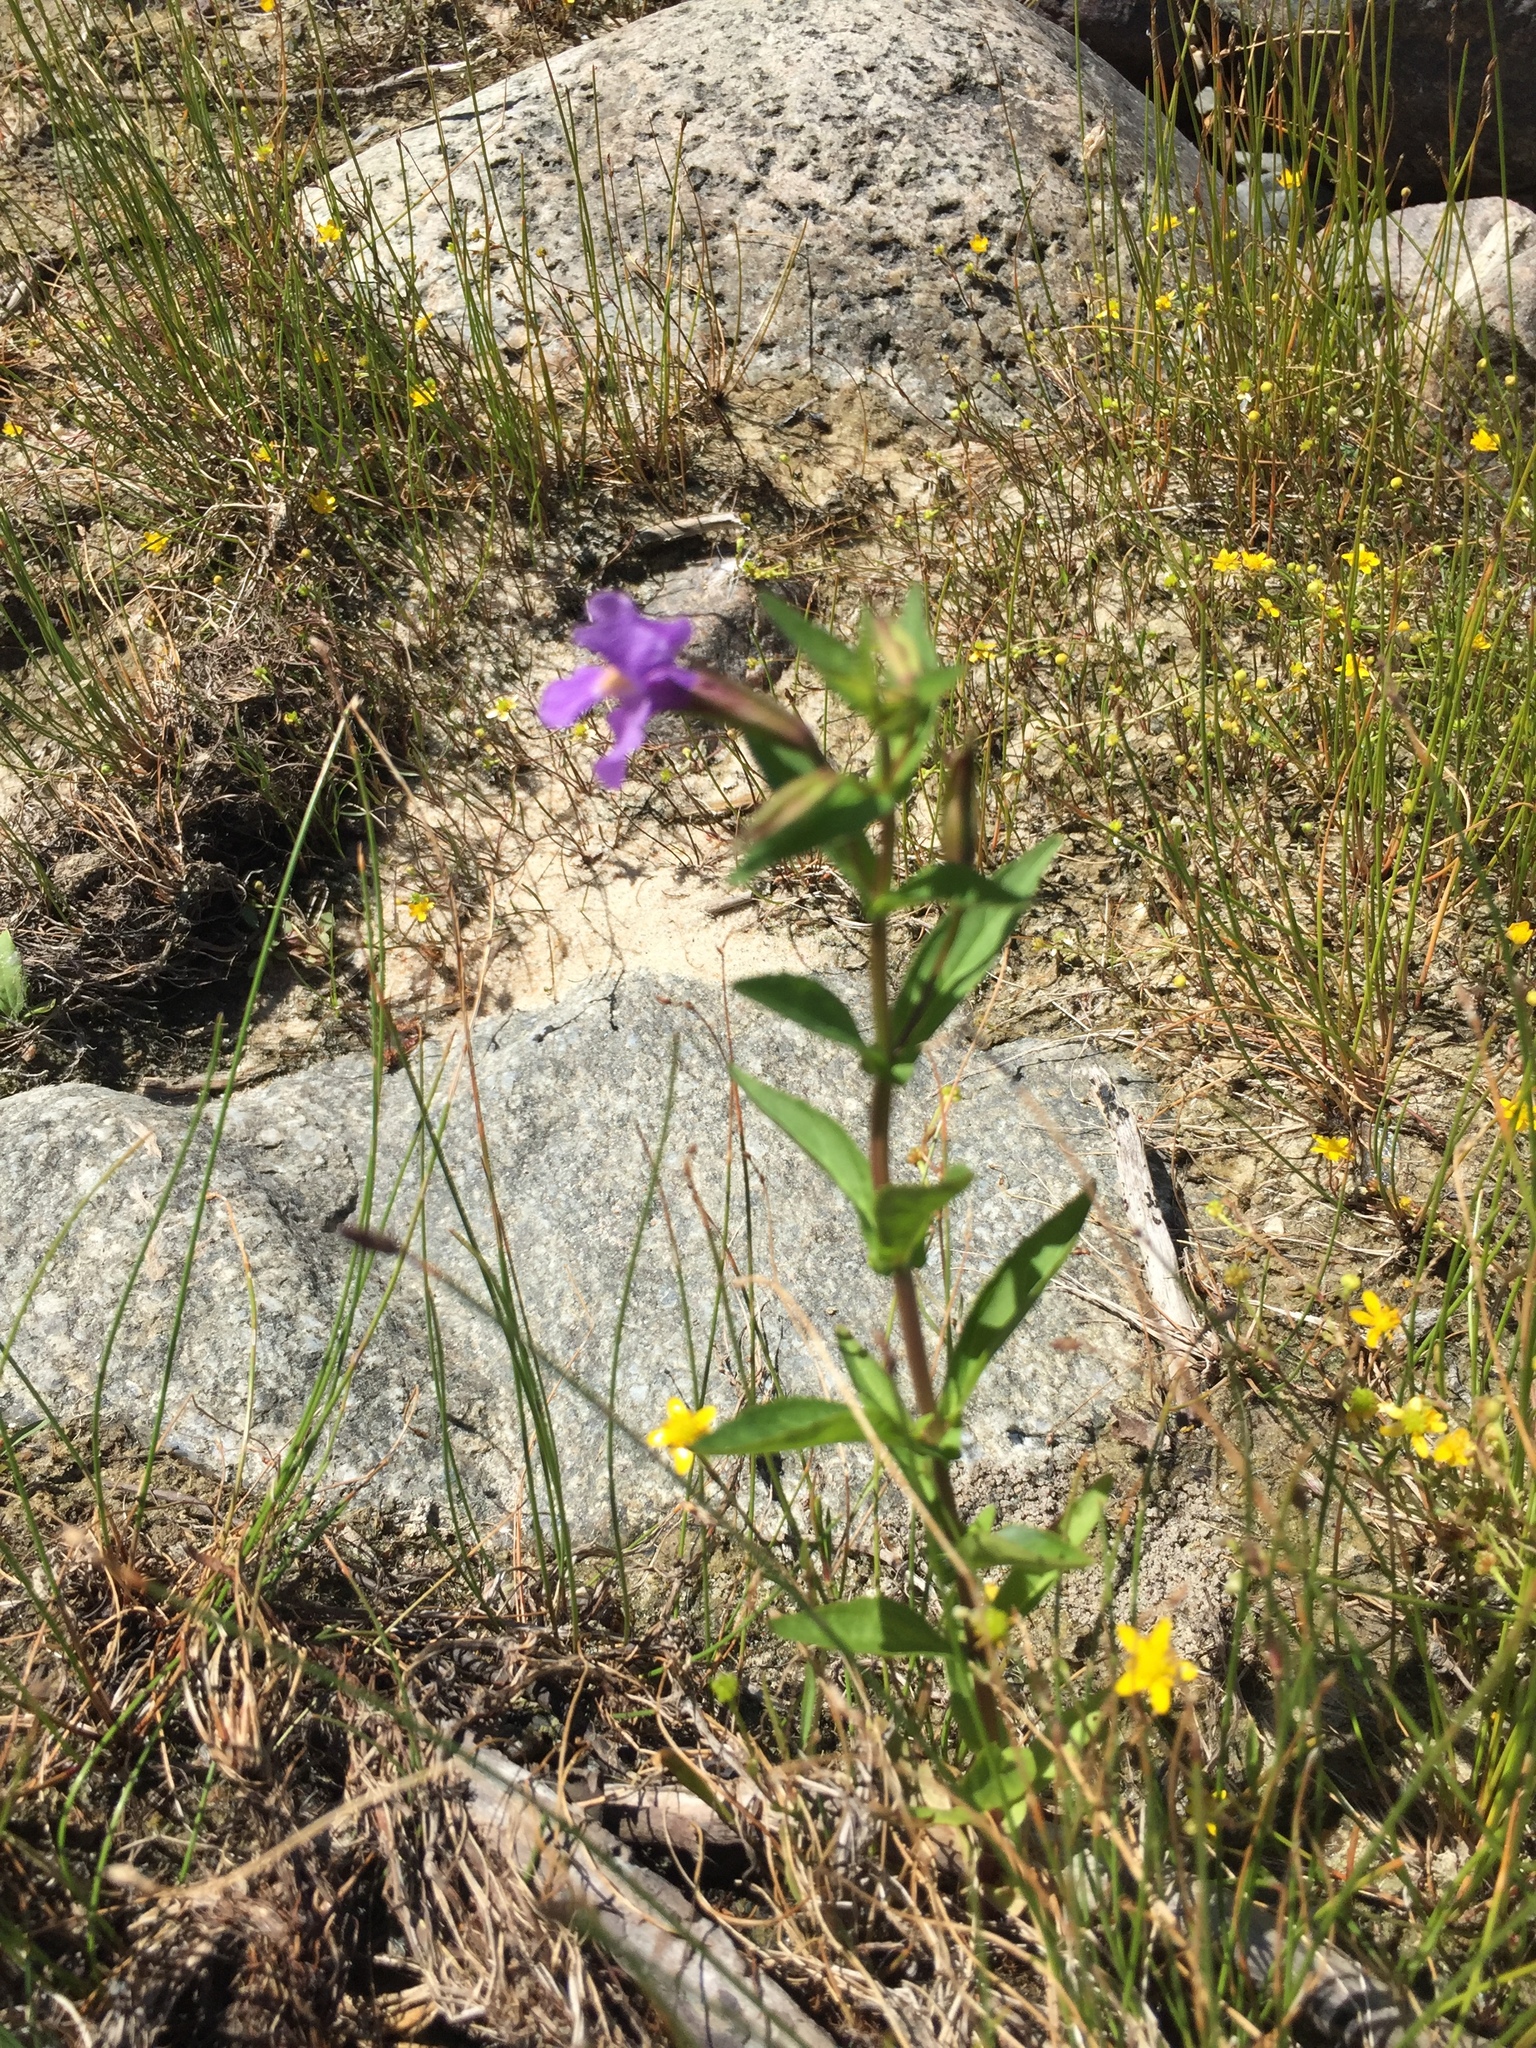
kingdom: Plantae
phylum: Tracheophyta
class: Magnoliopsida
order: Lamiales
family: Phrymaceae
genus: Mimulus
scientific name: Mimulus ringens
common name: Allegheny monkeyflower
